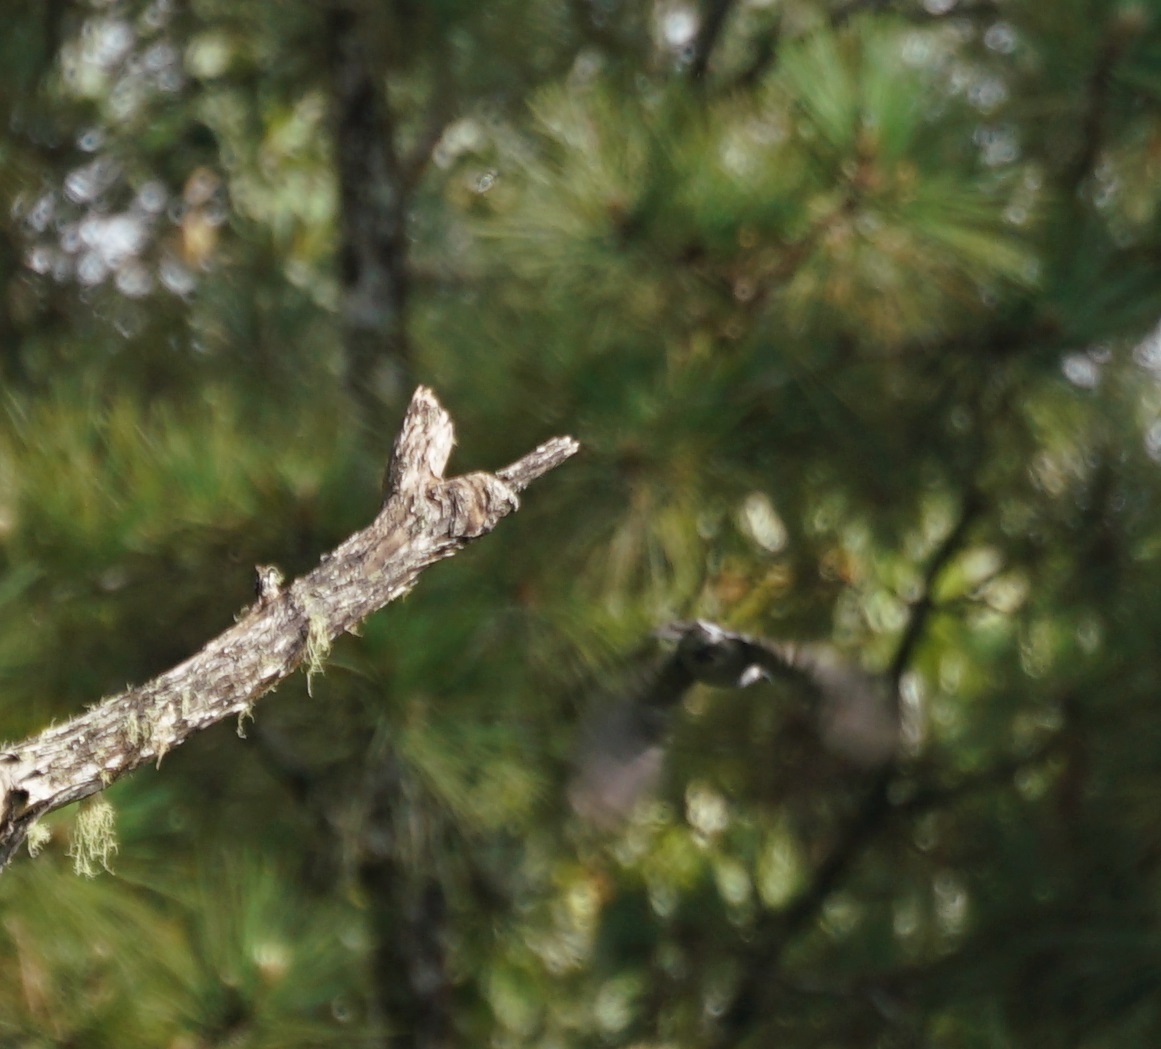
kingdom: Animalia
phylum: Chordata
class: Aves
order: Passeriformes
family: Dicruridae
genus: Dicrurus
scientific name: Dicrurus leucophaeus
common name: Ashy drongo
